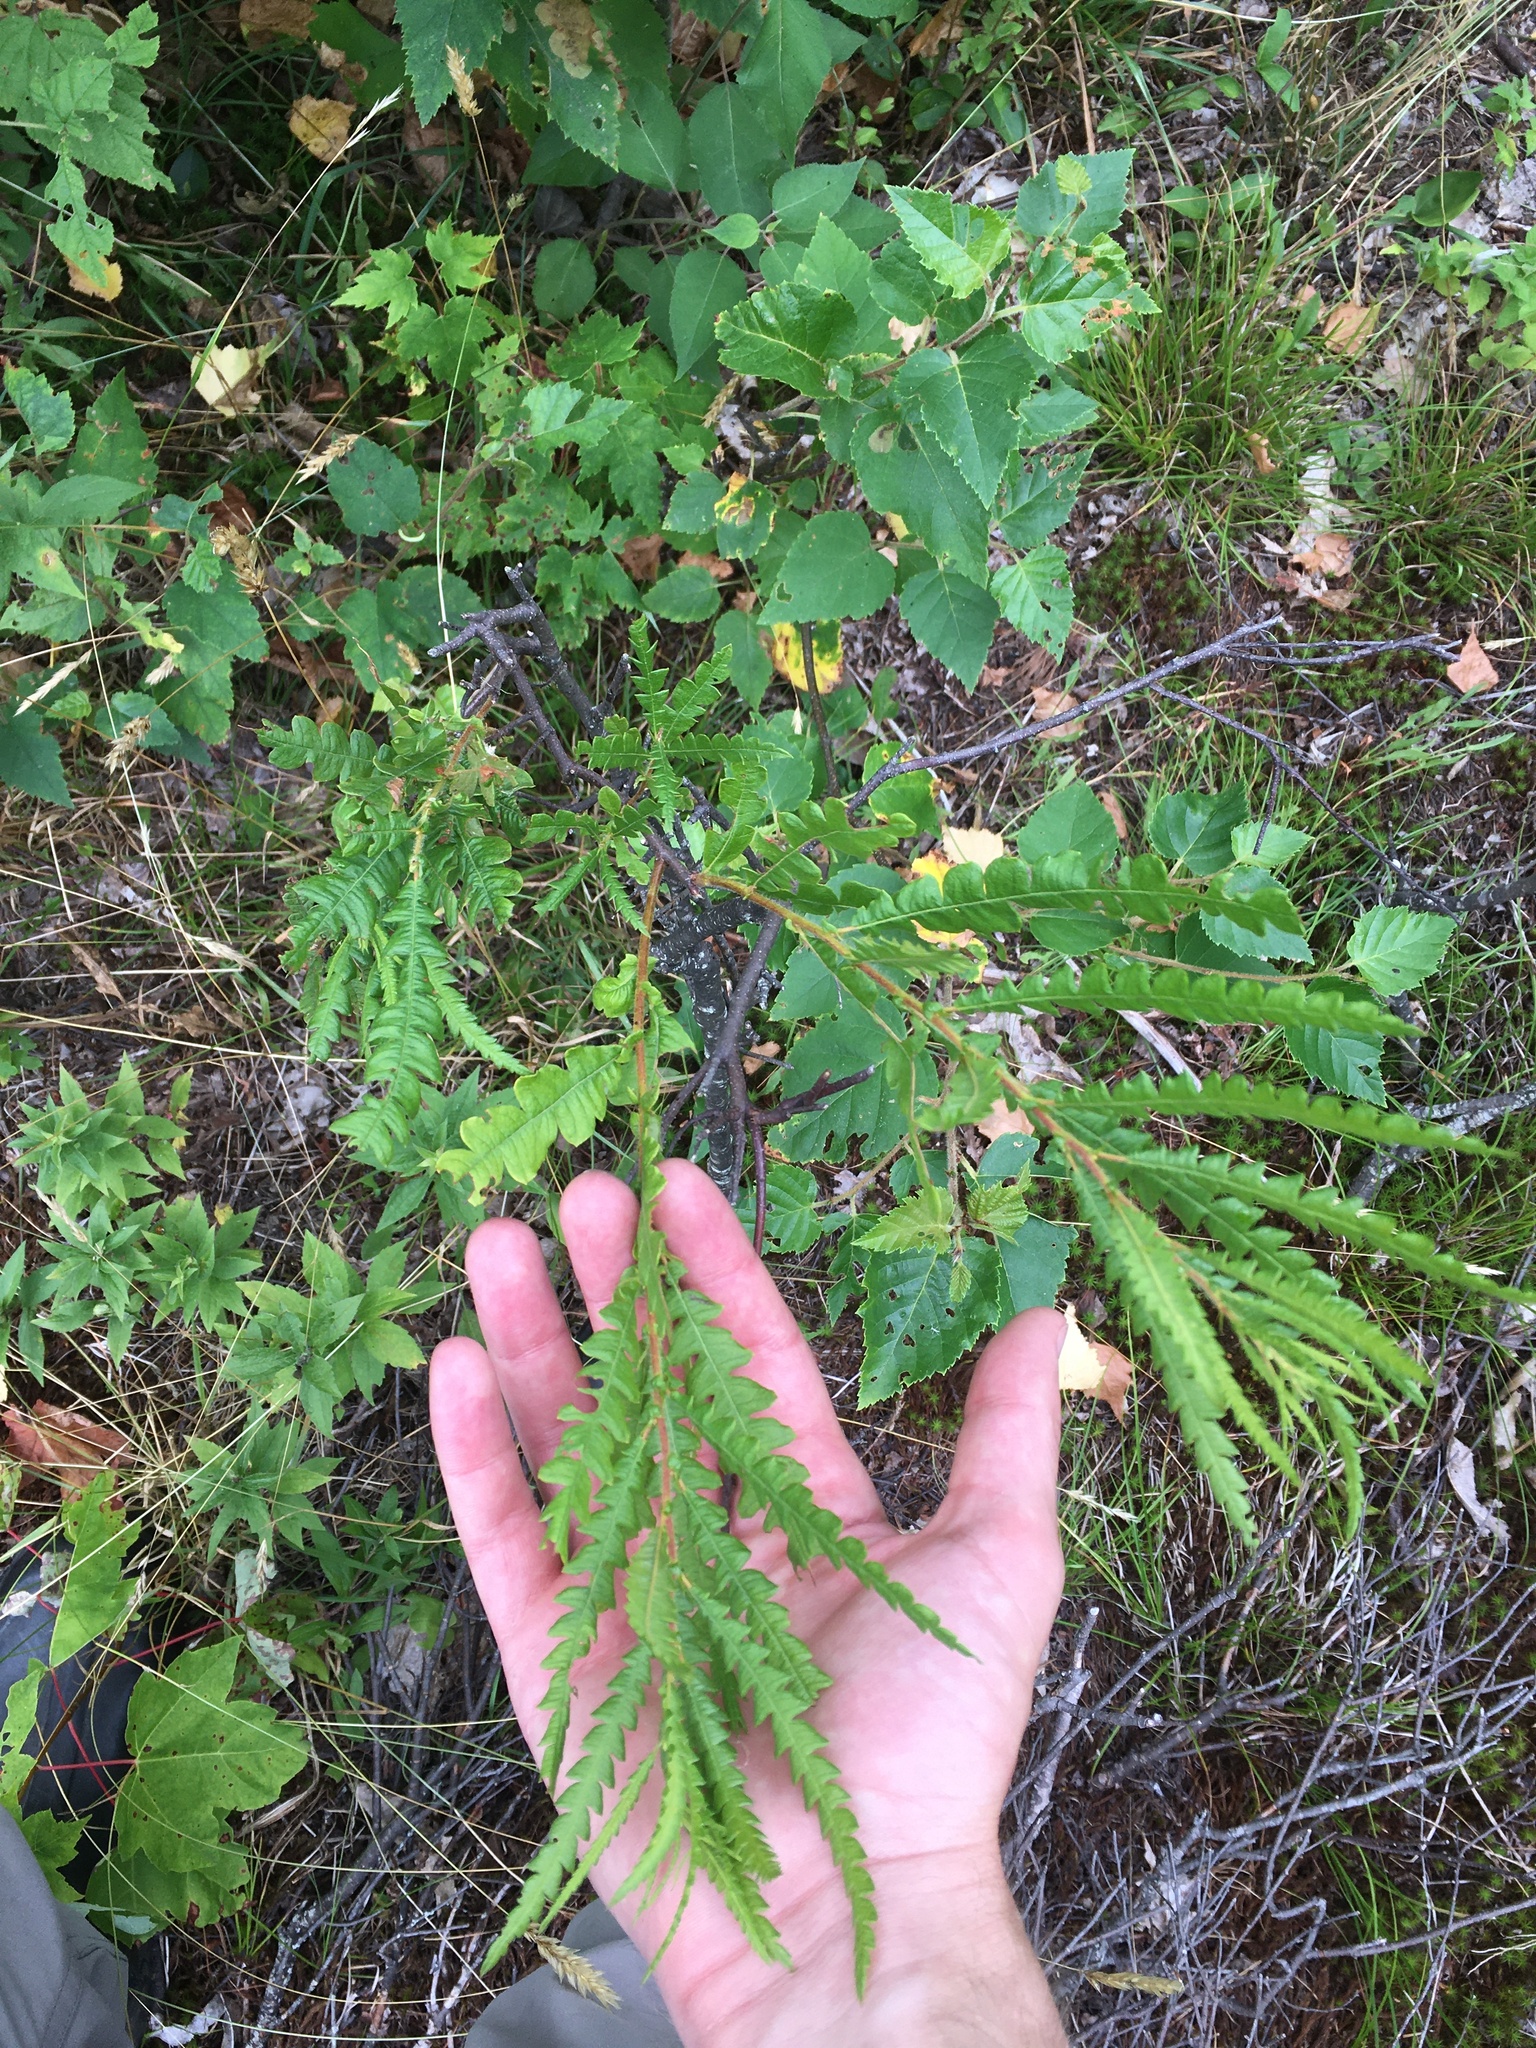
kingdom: Plantae
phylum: Tracheophyta
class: Magnoliopsida
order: Fagales
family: Myricaceae
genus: Comptonia
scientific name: Comptonia peregrina
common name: Sweet-fern
